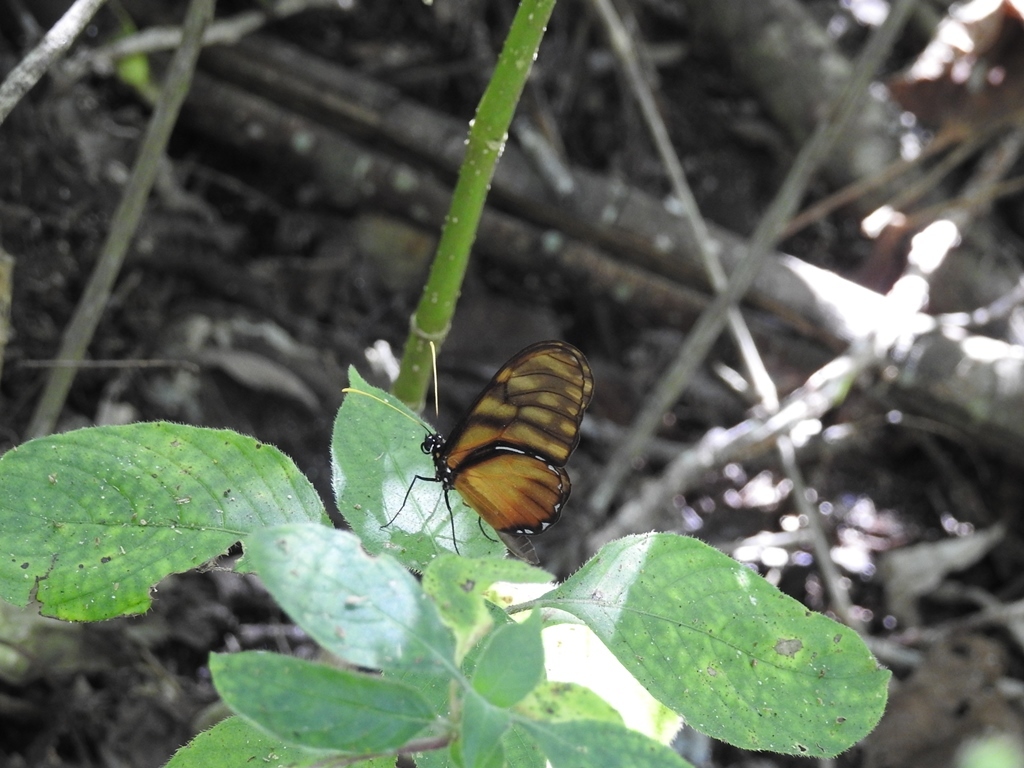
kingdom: Animalia
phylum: Arthropoda
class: Insecta
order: Lepidoptera
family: Nymphalidae
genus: Dircenna
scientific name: Dircenna
